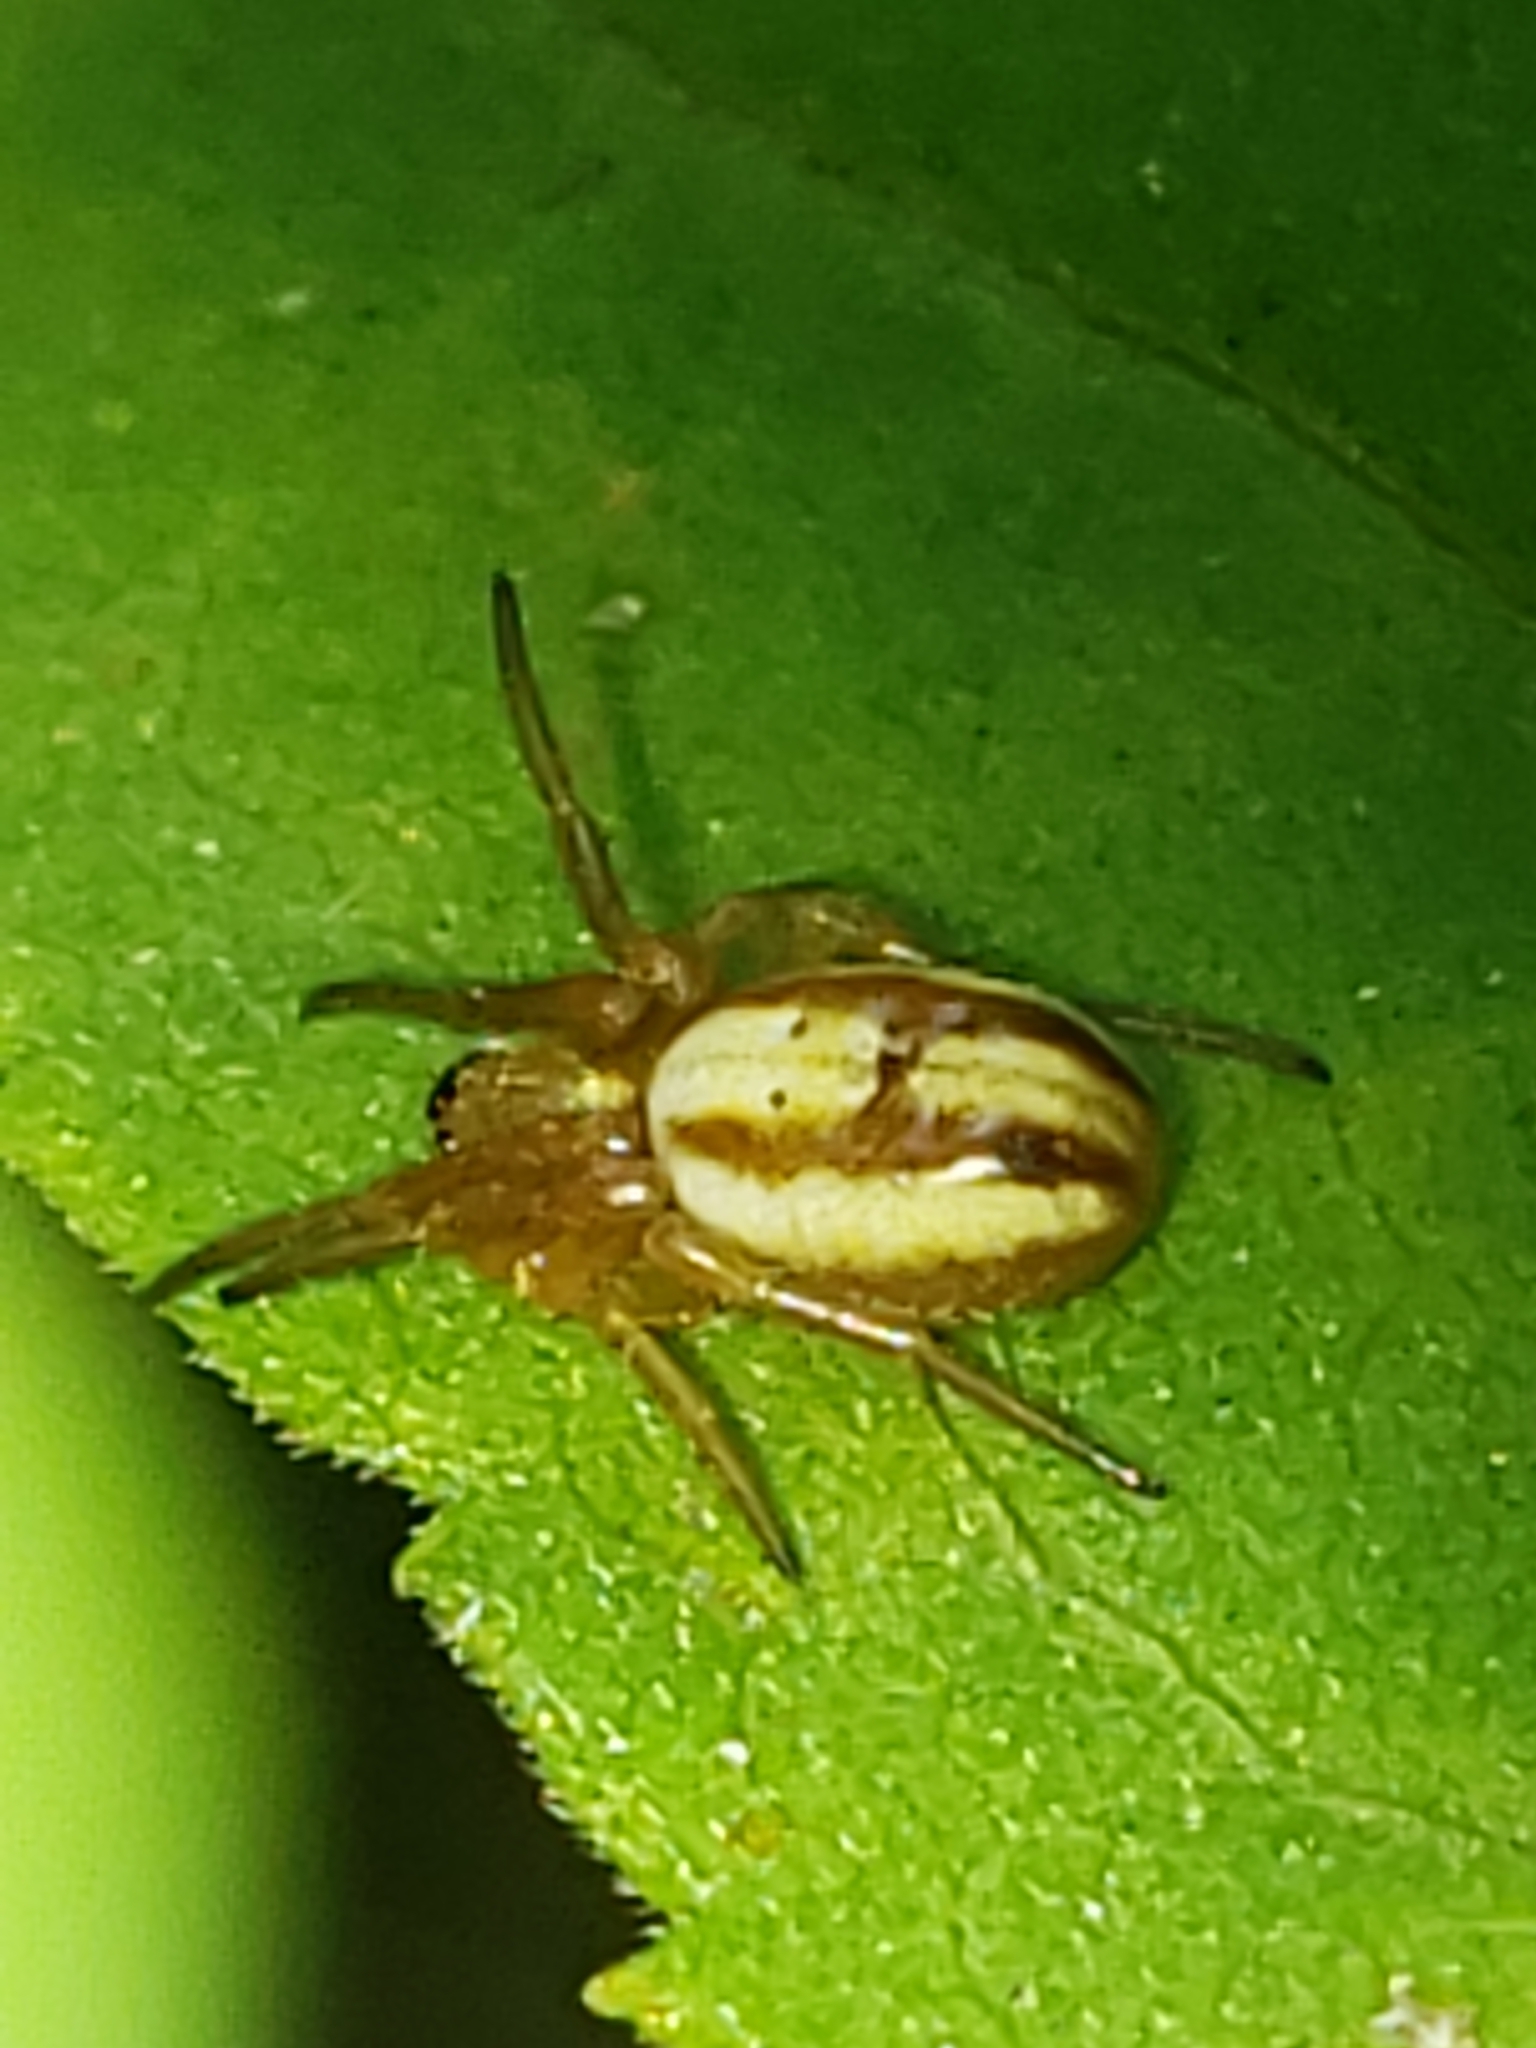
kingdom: Animalia
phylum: Arthropoda
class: Arachnida
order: Araneae
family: Araneidae
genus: Araneus
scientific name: Araneus pratensis
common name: Openfield orbweaver
